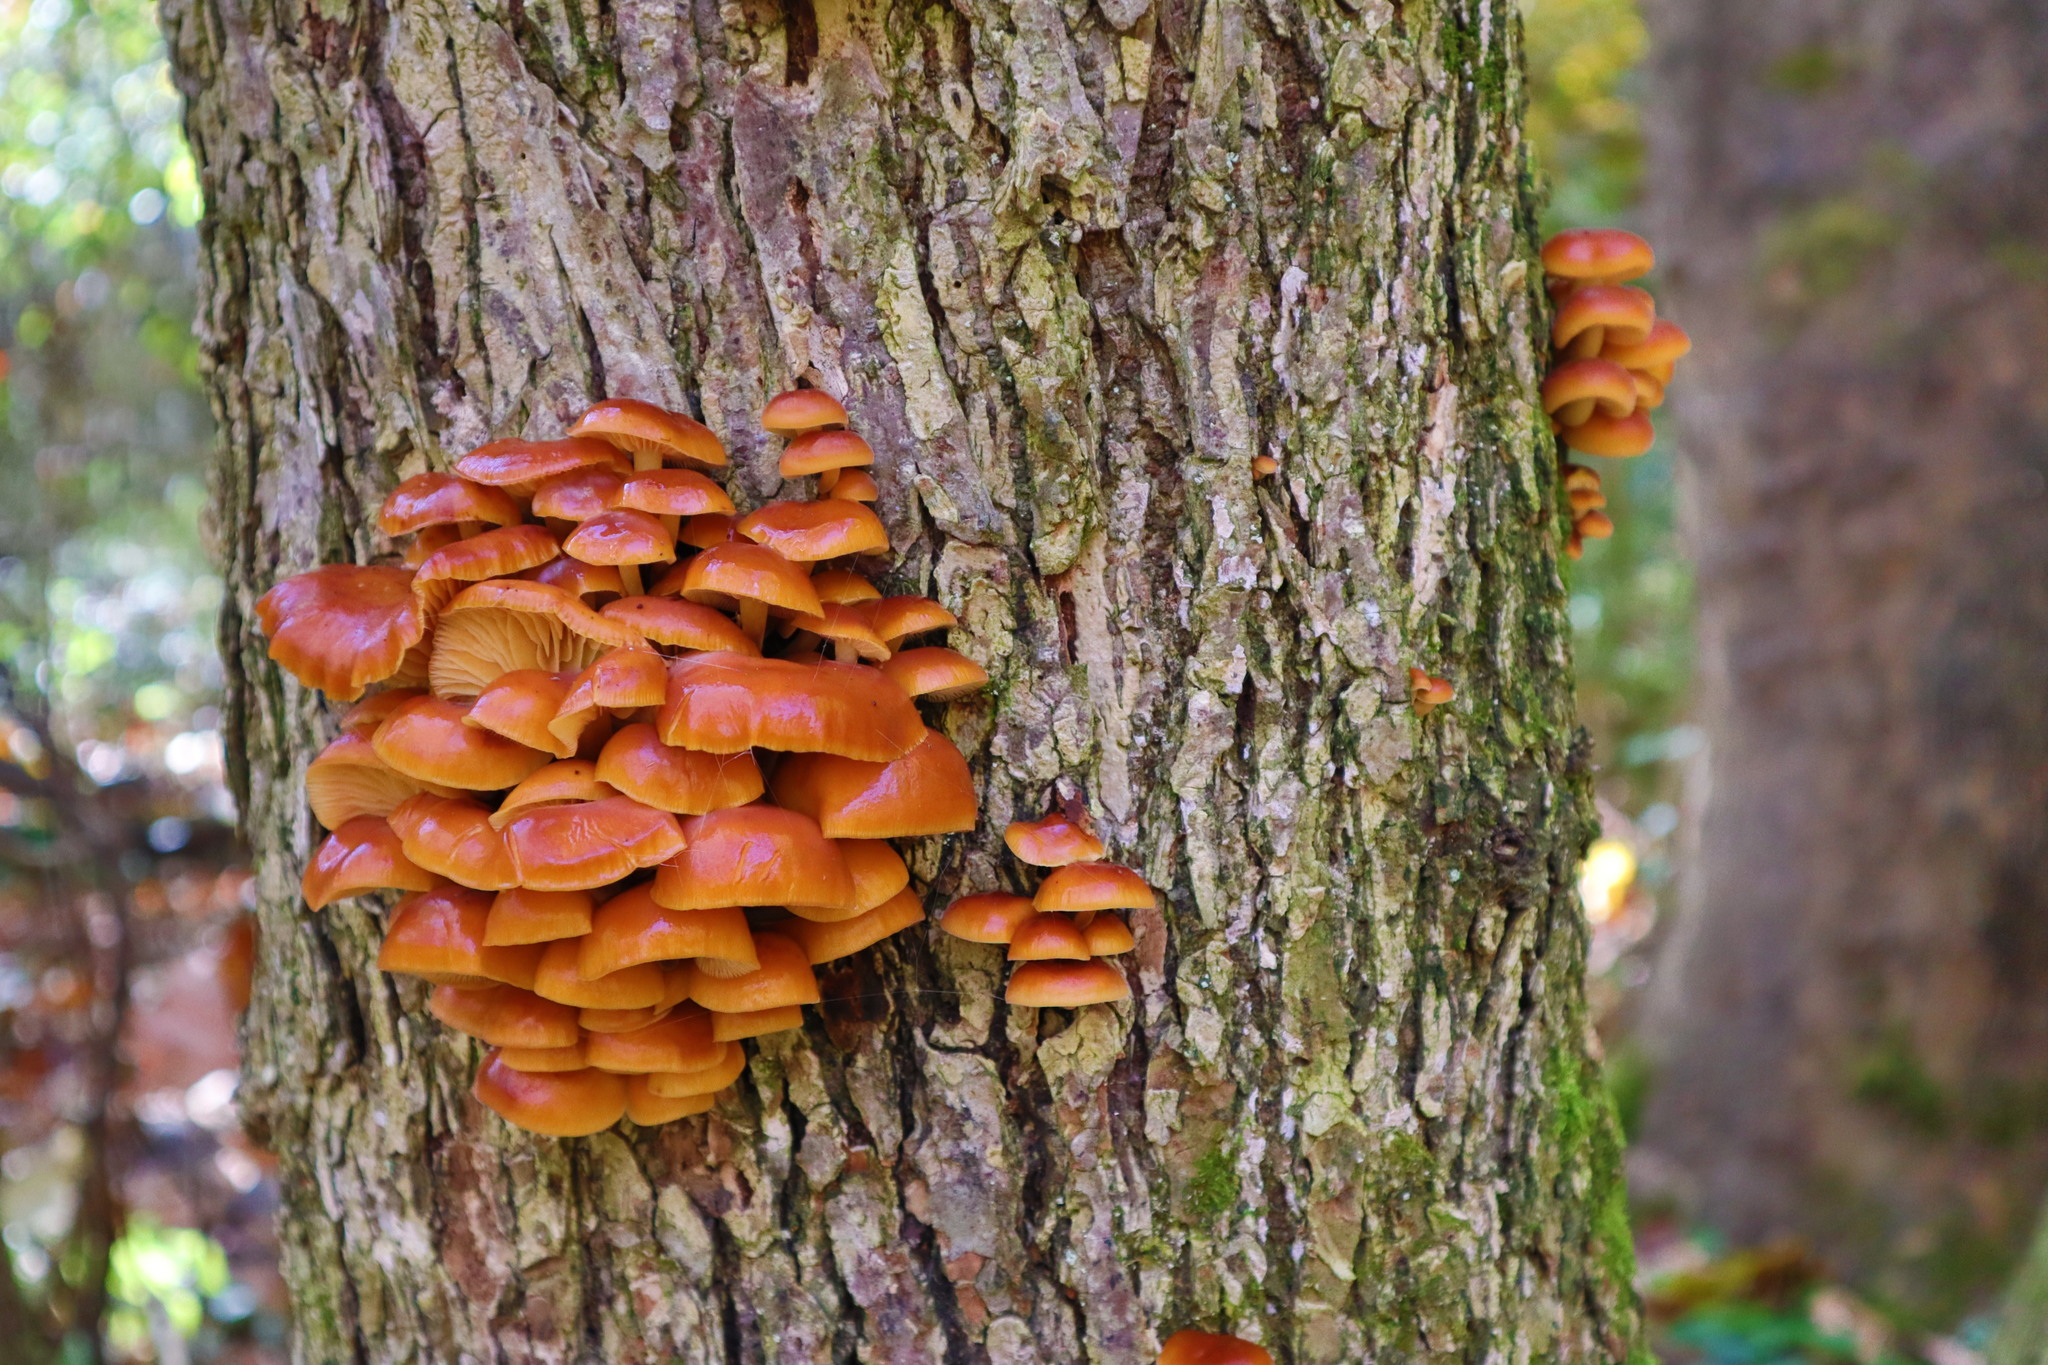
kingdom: Fungi
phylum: Basidiomycota
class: Agaricomycetes
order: Agaricales
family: Physalacriaceae
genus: Flammulina
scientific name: Flammulina velutipes
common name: Velvet shank
